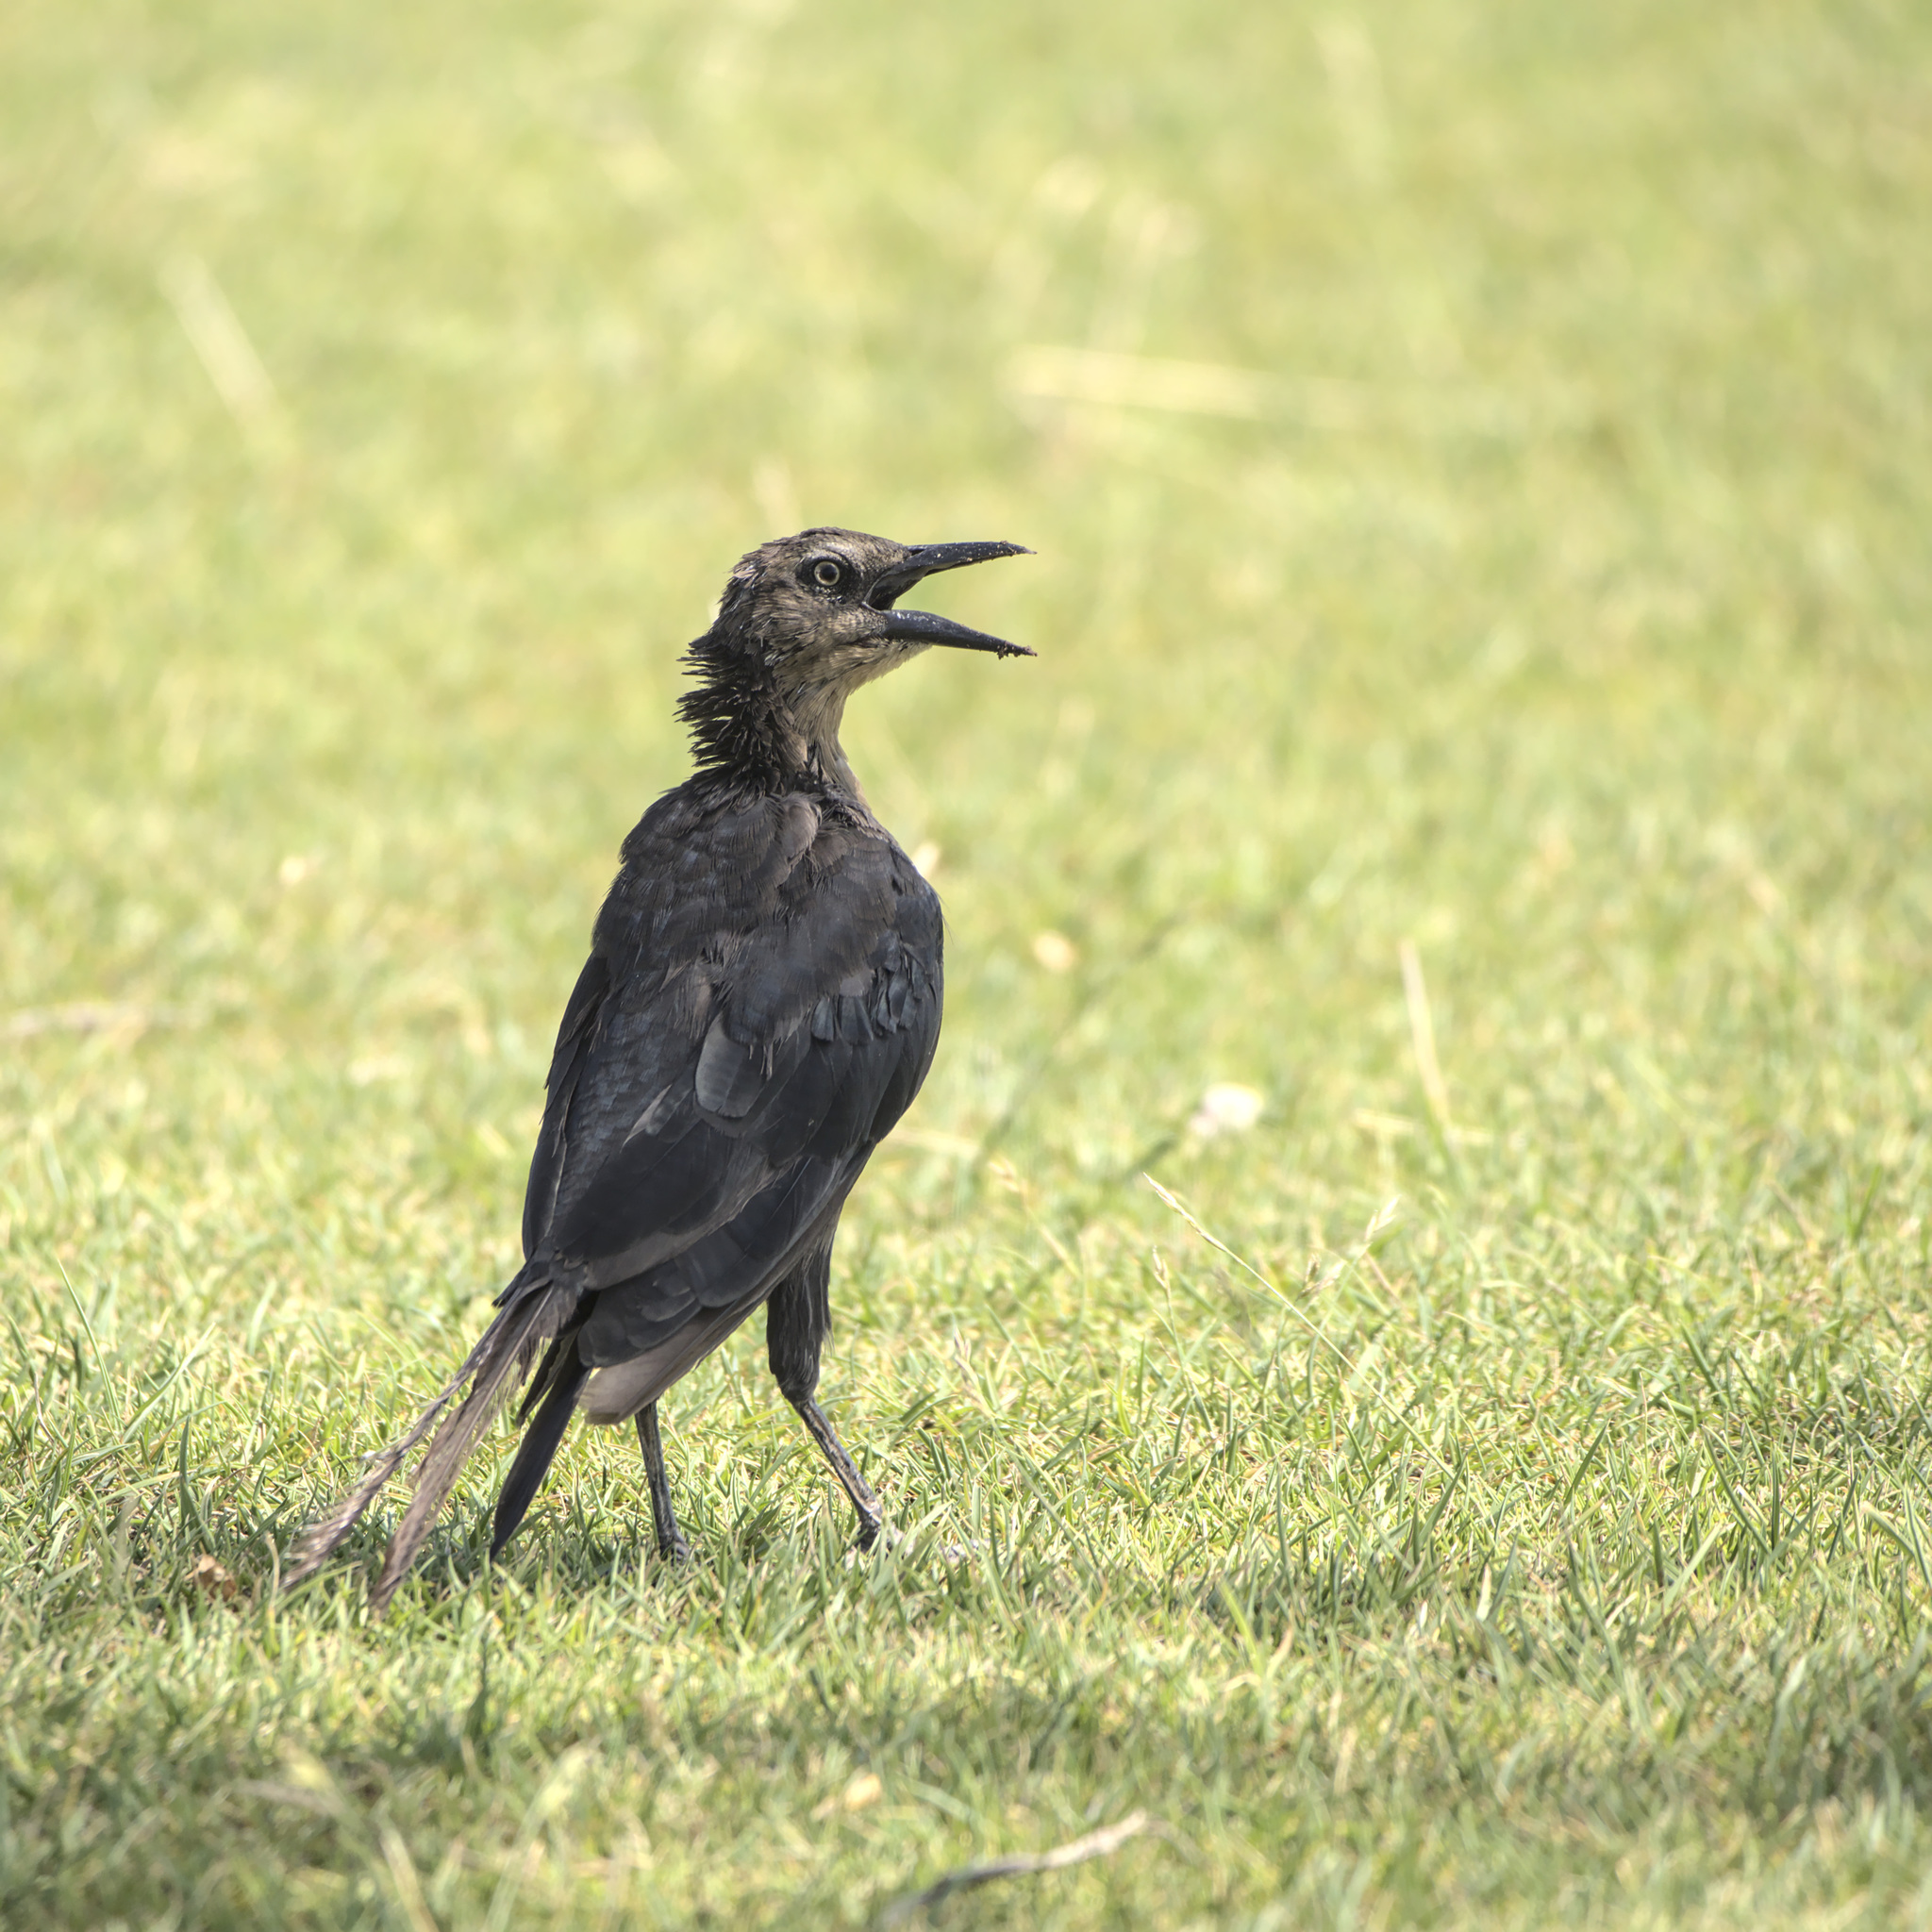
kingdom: Animalia
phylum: Chordata
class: Aves
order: Passeriformes
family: Icteridae
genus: Quiscalus
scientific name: Quiscalus mexicanus
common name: Great-tailed grackle
